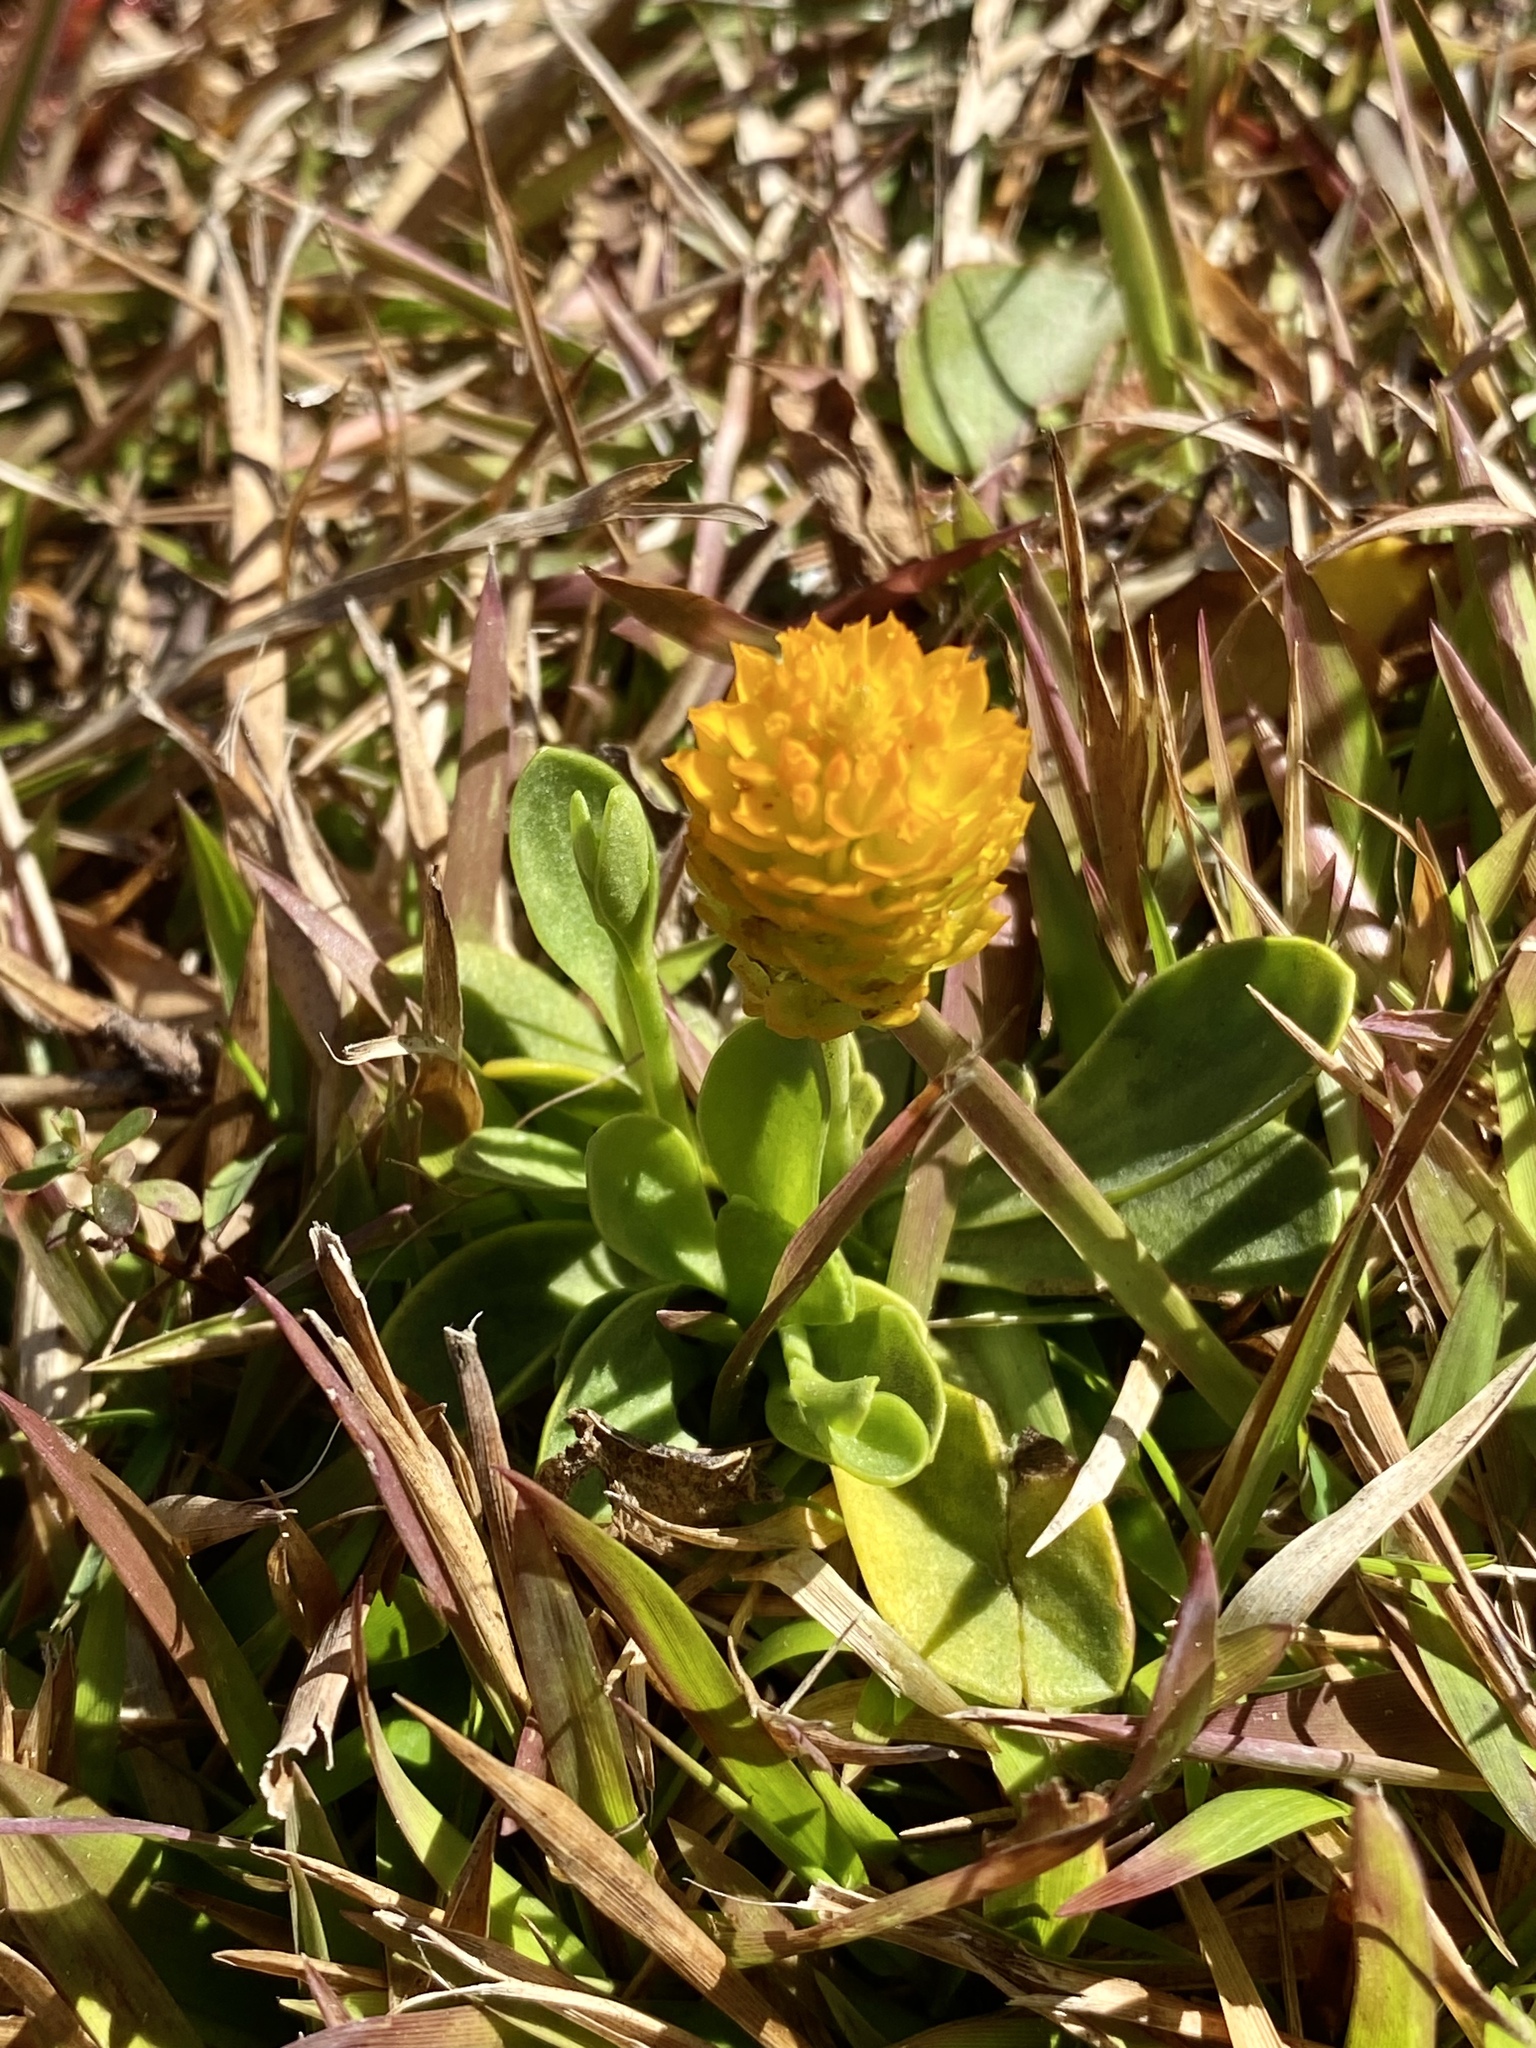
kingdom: Plantae
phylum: Tracheophyta
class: Magnoliopsida
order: Fabales
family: Polygalaceae
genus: Polygala
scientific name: Polygala lutea
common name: Orange milkwort
